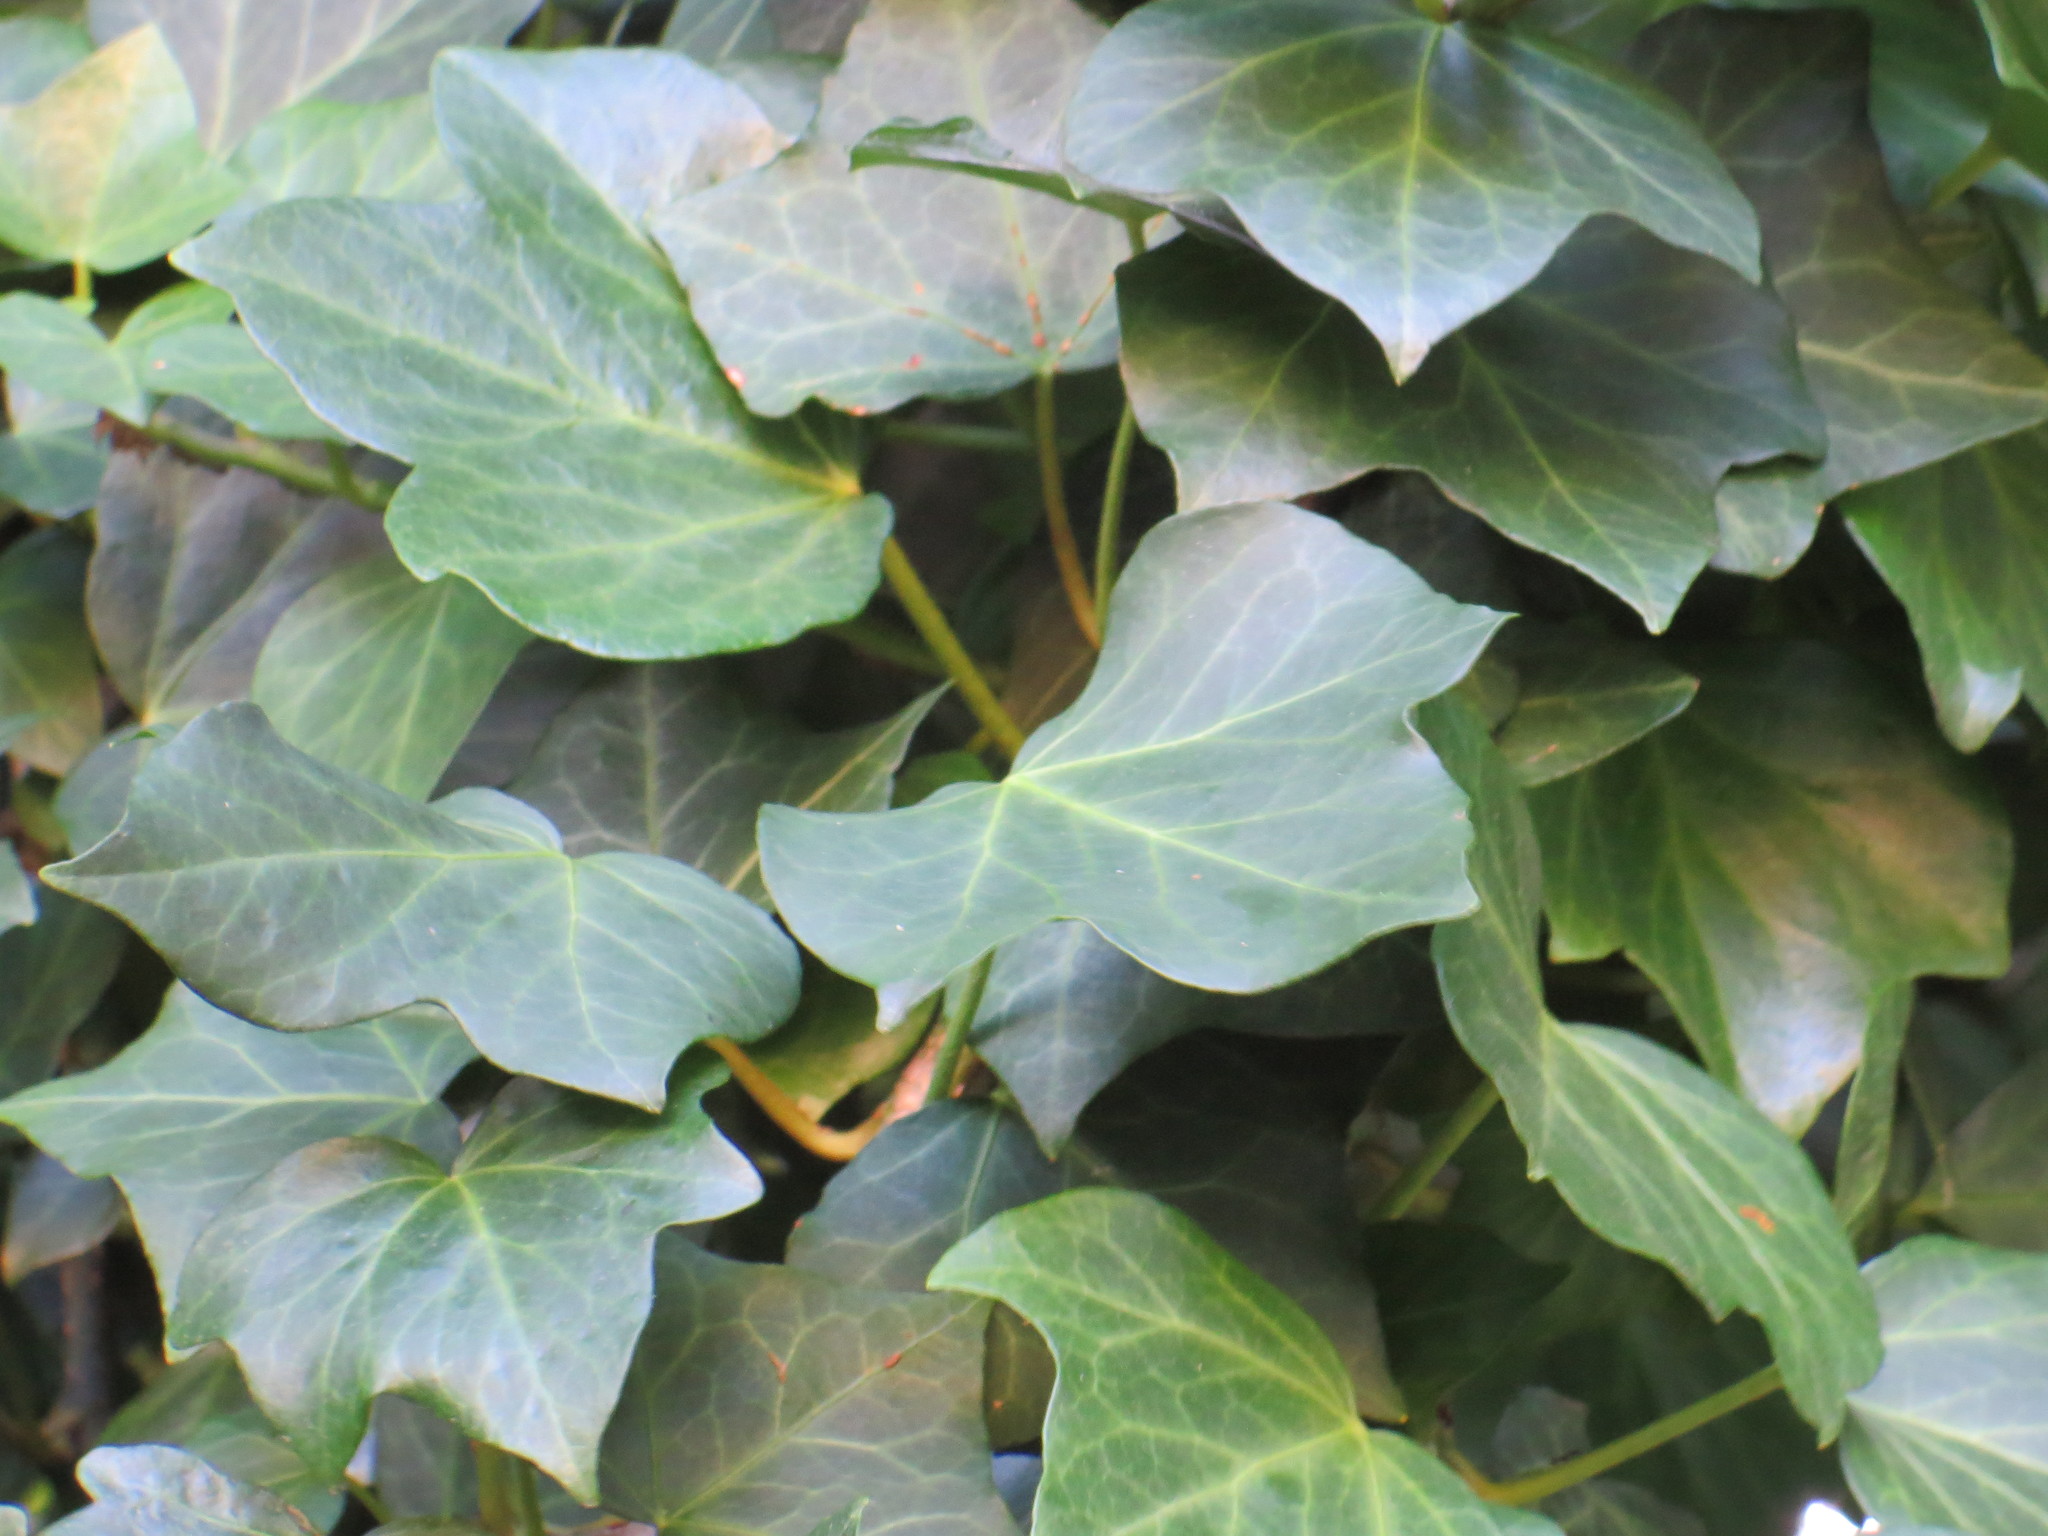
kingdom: Plantae
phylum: Tracheophyta
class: Magnoliopsida
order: Apiales
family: Araliaceae
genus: Hedera
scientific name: Hedera hibernica
